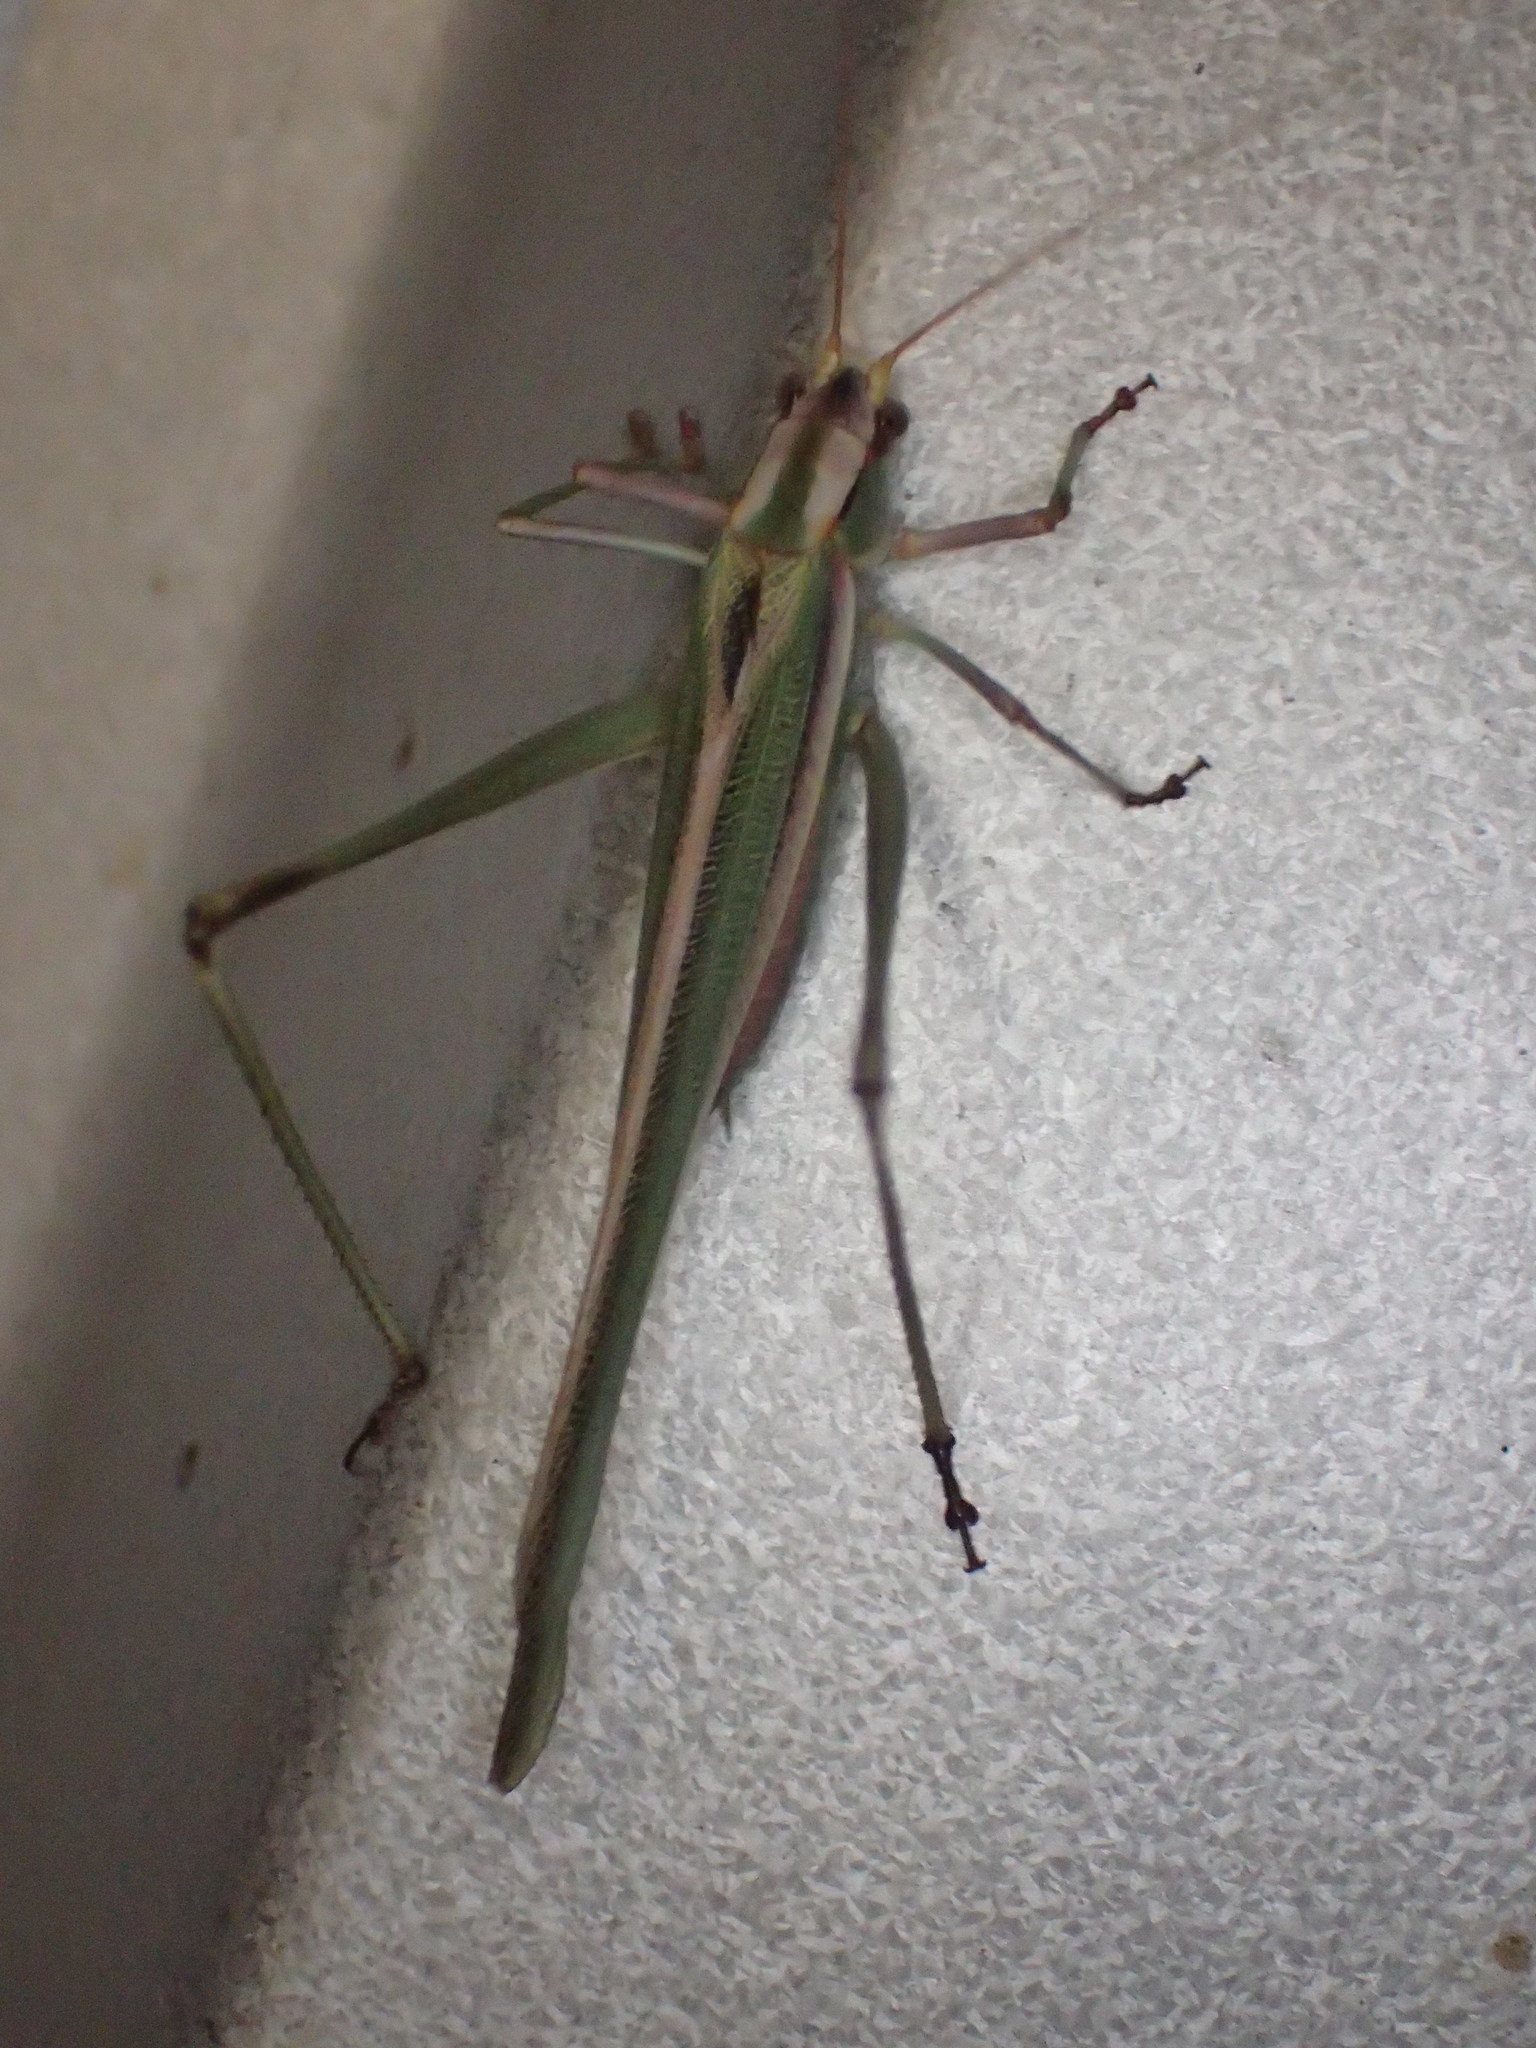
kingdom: Animalia
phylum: Arthropoda
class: Insecta
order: Orthoptera
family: Tettigoniidae
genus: Polichne
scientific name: Polichne argentata
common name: Striped polichne
